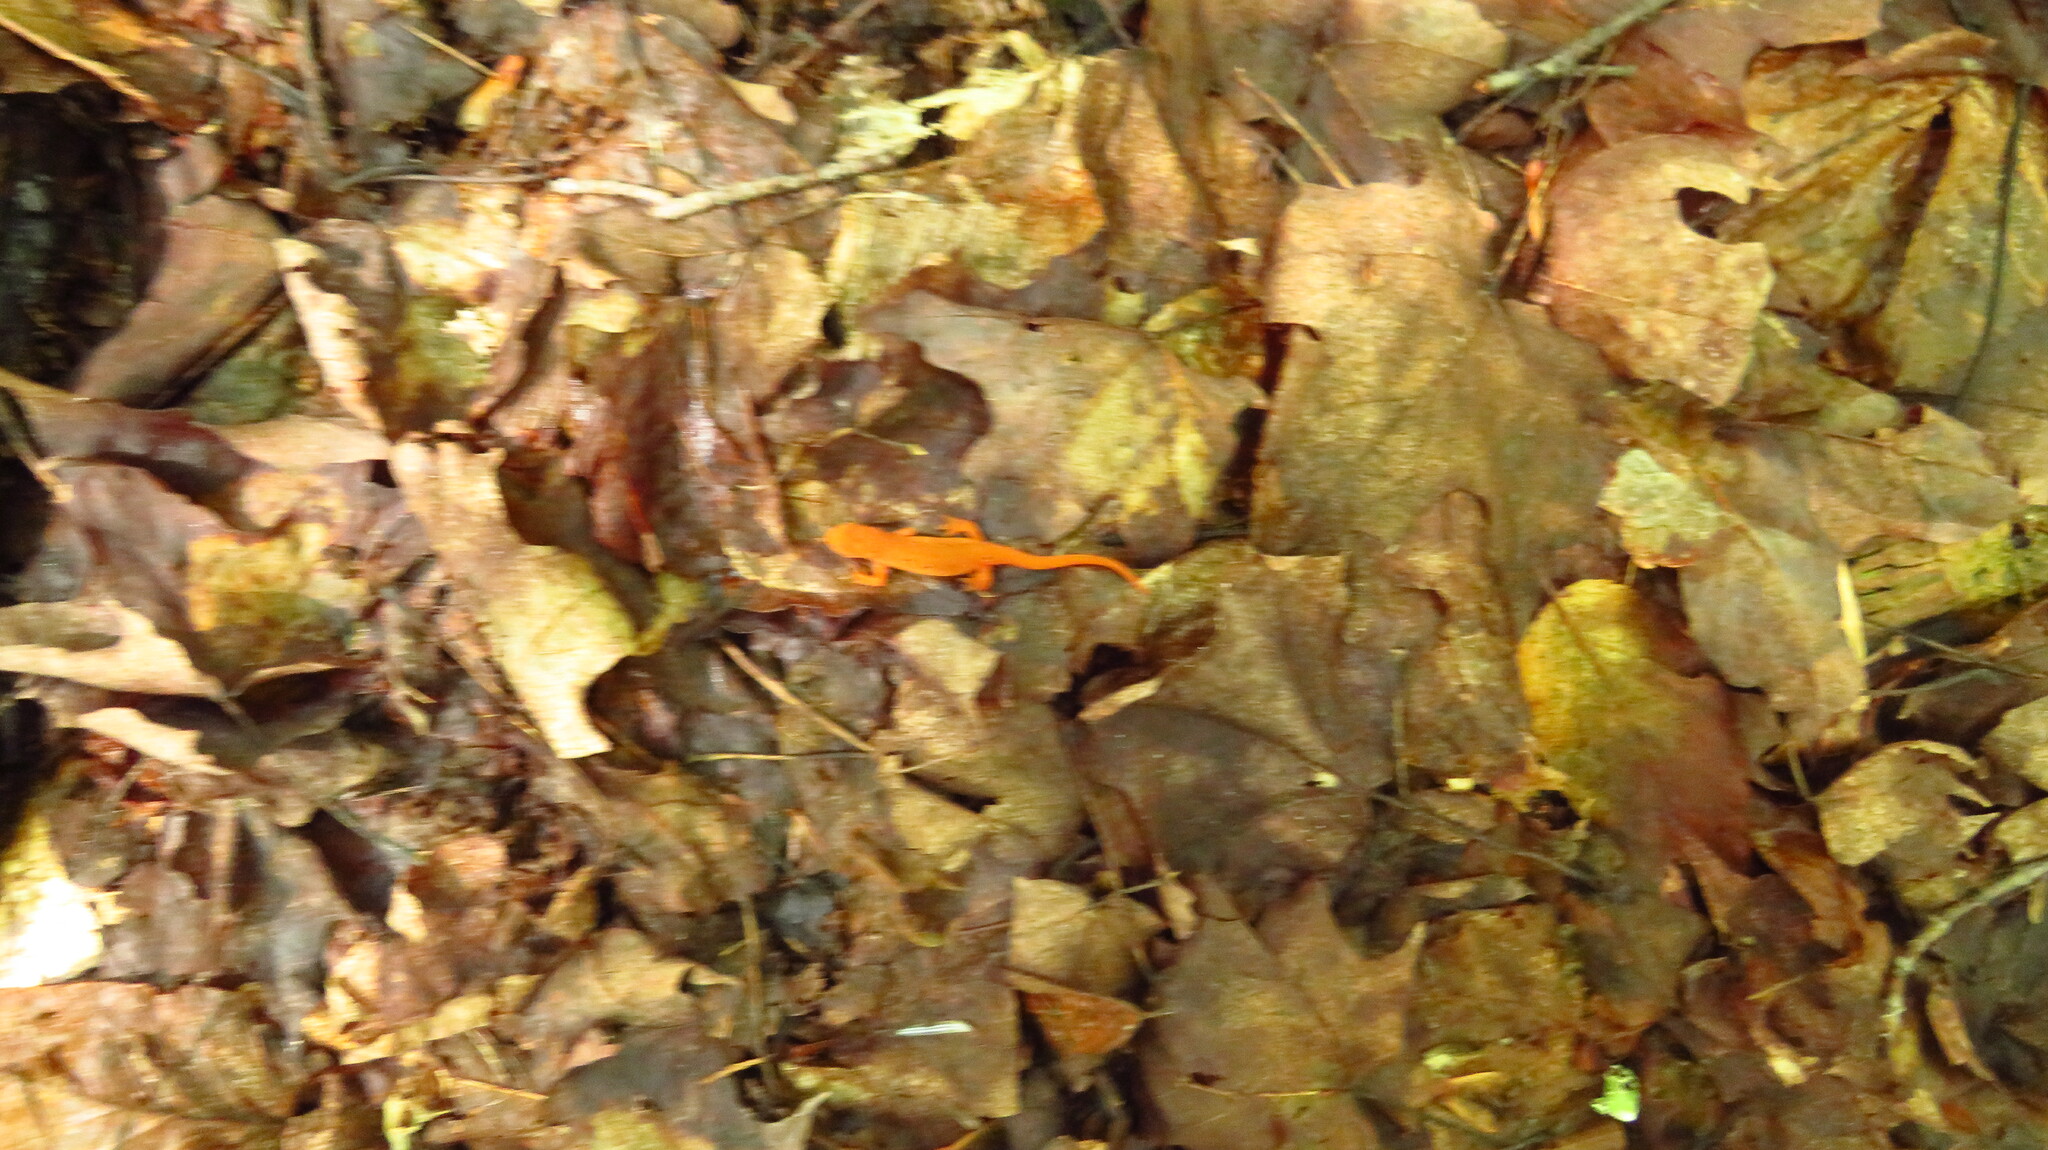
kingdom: Animalia
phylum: Chordata
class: Amphibia
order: Caudata
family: Salamandridae
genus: Notophthalmus
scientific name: Notophthalmus viridescens
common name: Eastern newt
